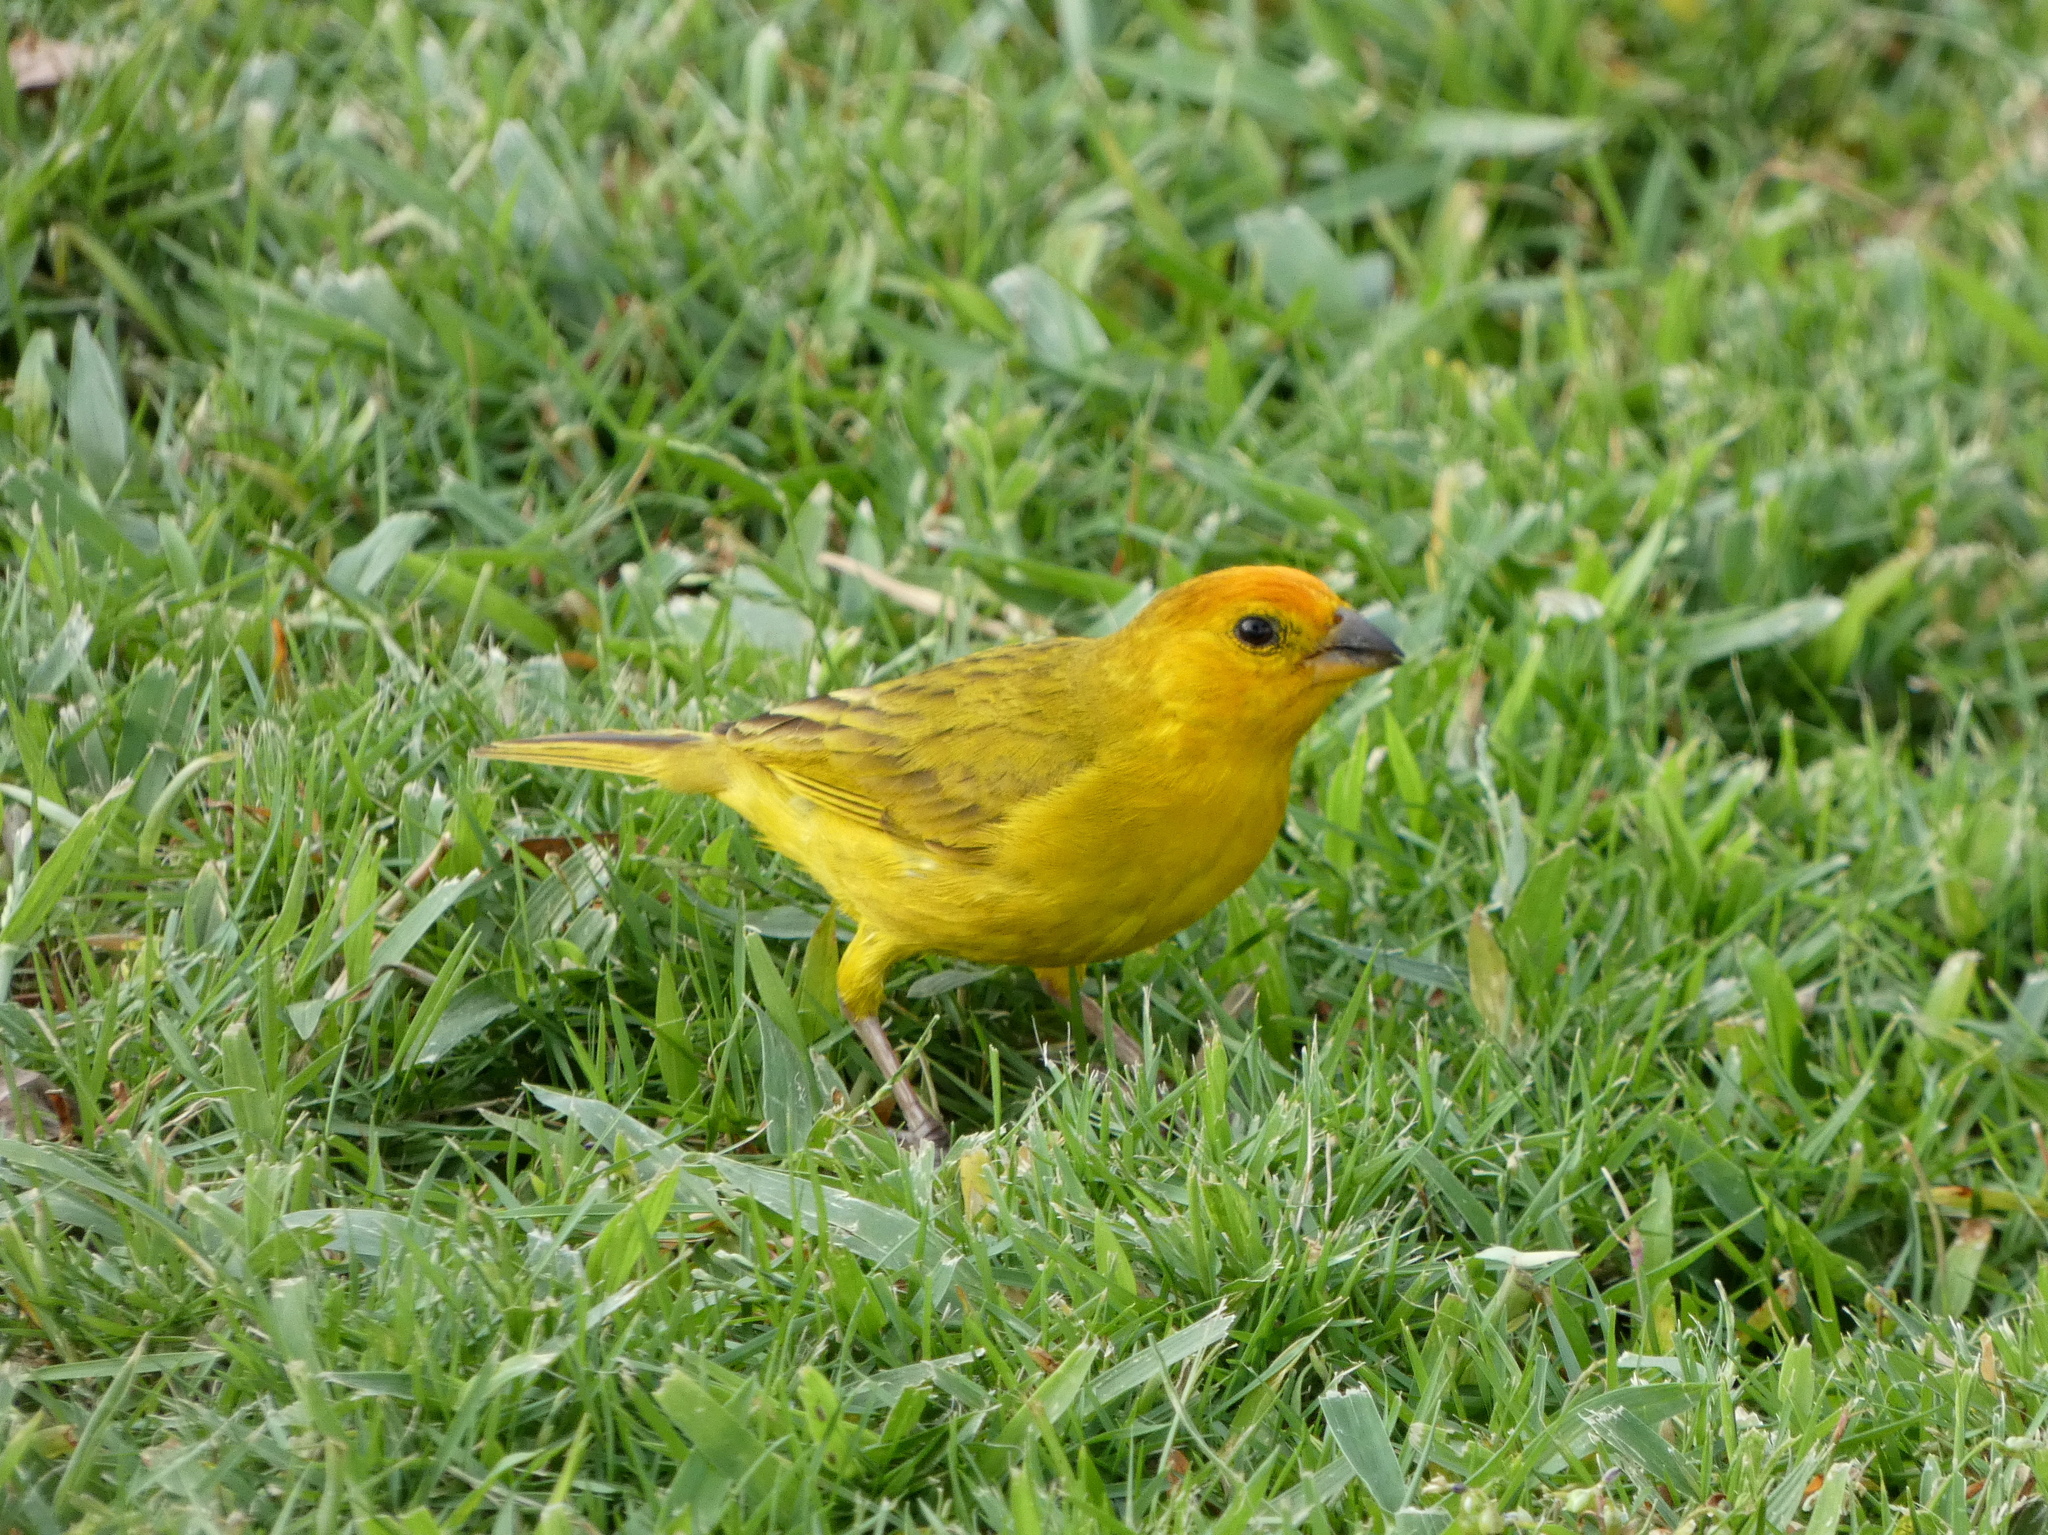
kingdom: Animalia
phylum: Chordata
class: Aves
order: Passeriformes
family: Thraupidae
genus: Sicalis
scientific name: Sicalis flaveola
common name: Saffron finch
